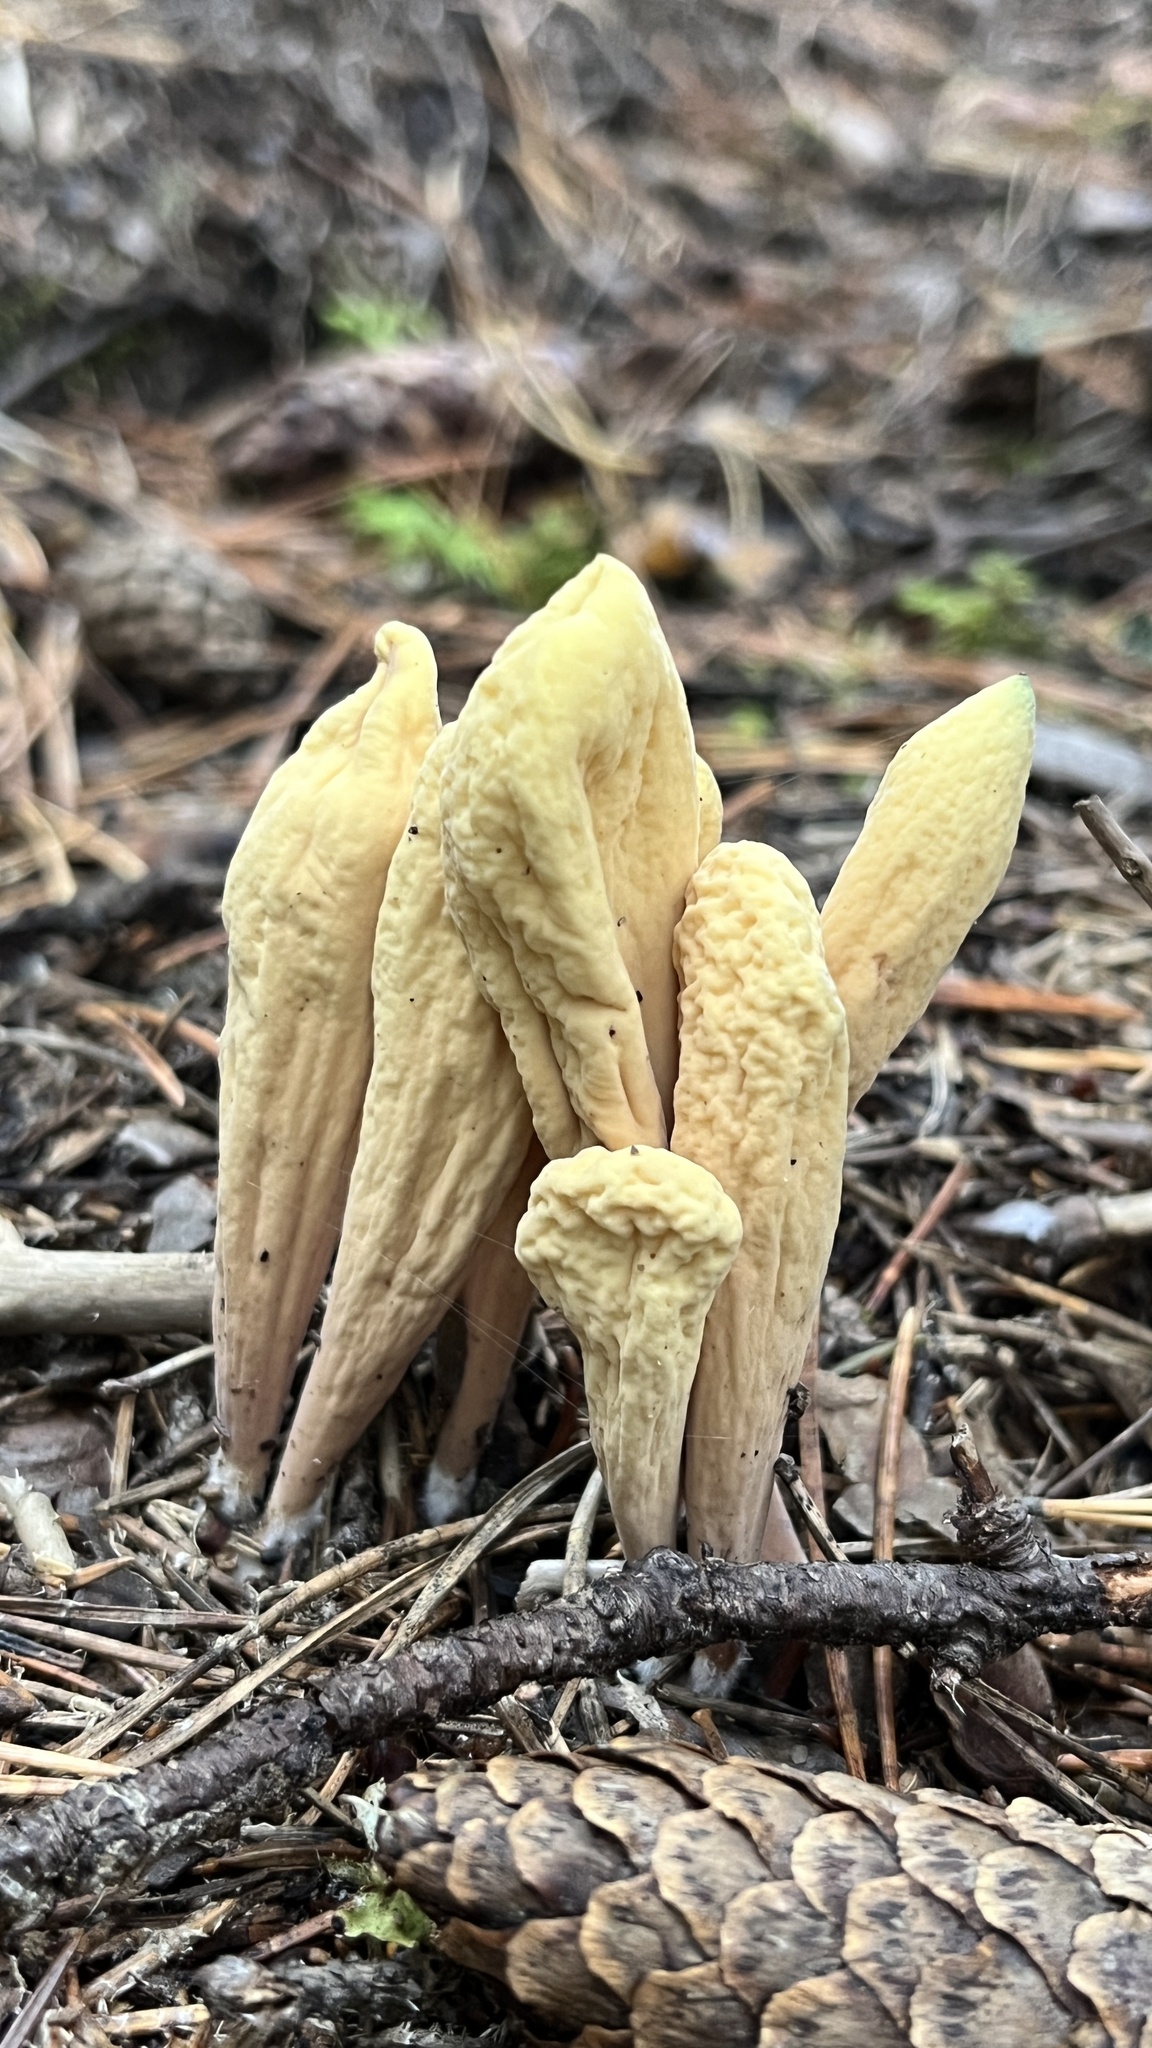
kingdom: Fungi
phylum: Basidiomycota
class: Agaricomycetes
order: Gomphales
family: Clavariadelphaceae
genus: Clavariadelphus
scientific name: Clavariadelphus ligula
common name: Ochre club
